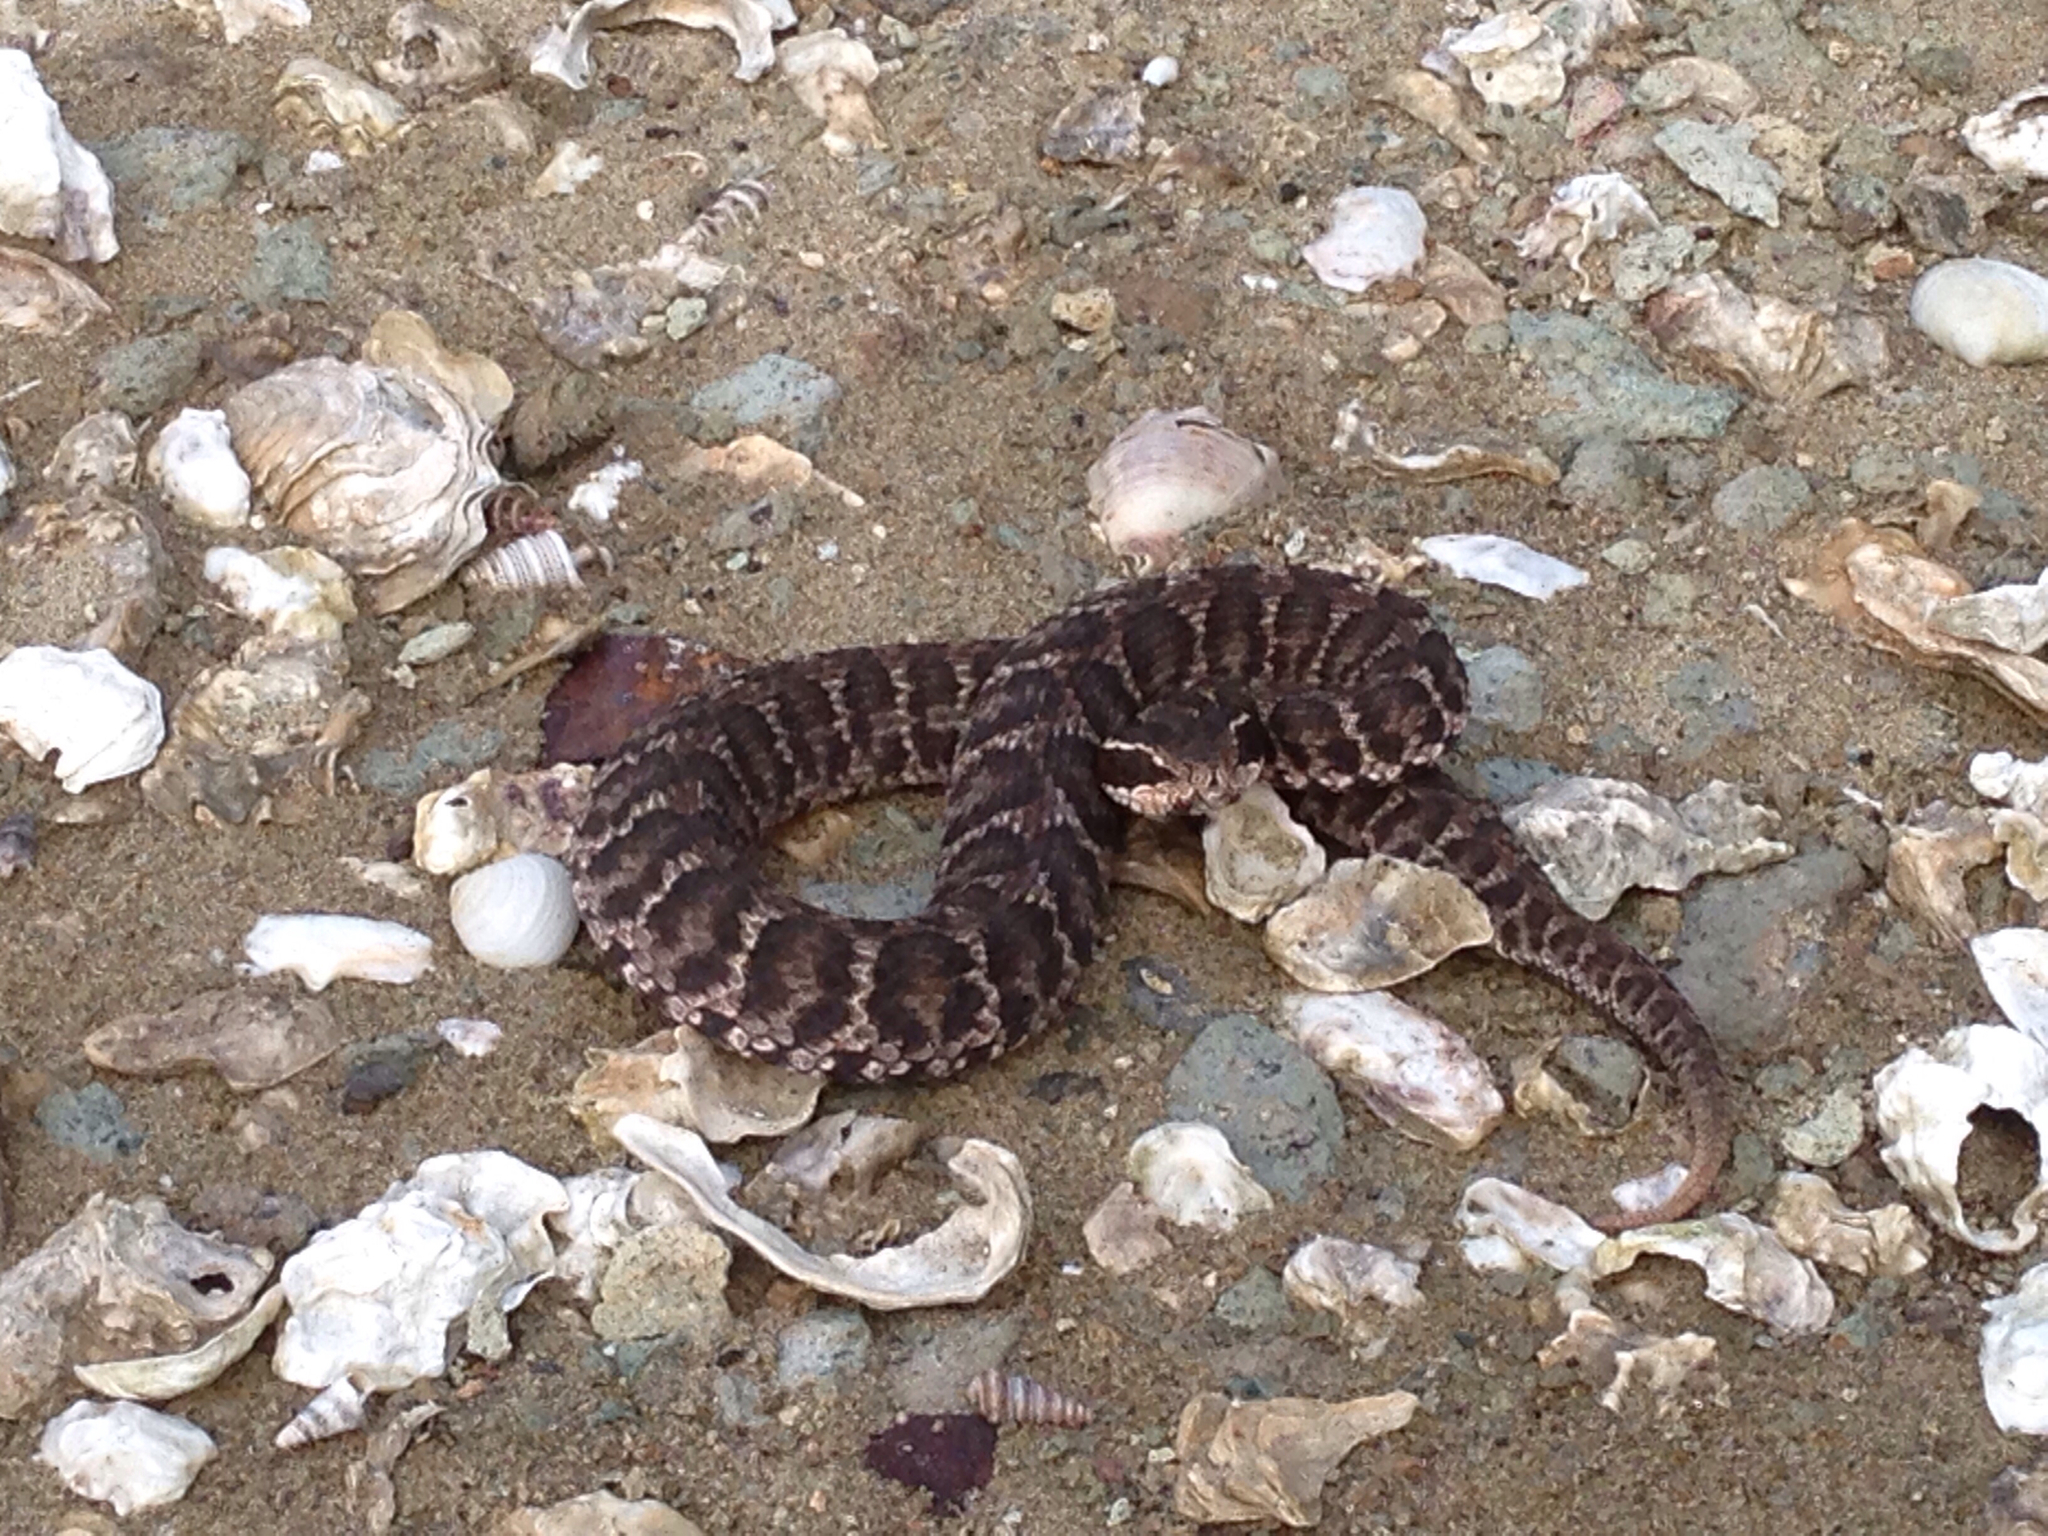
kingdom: Animalia
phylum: Chordata
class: Squamata
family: Viperidae
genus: Gloydius
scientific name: Gloydius brevicauda
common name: Short-tailed mamushi
